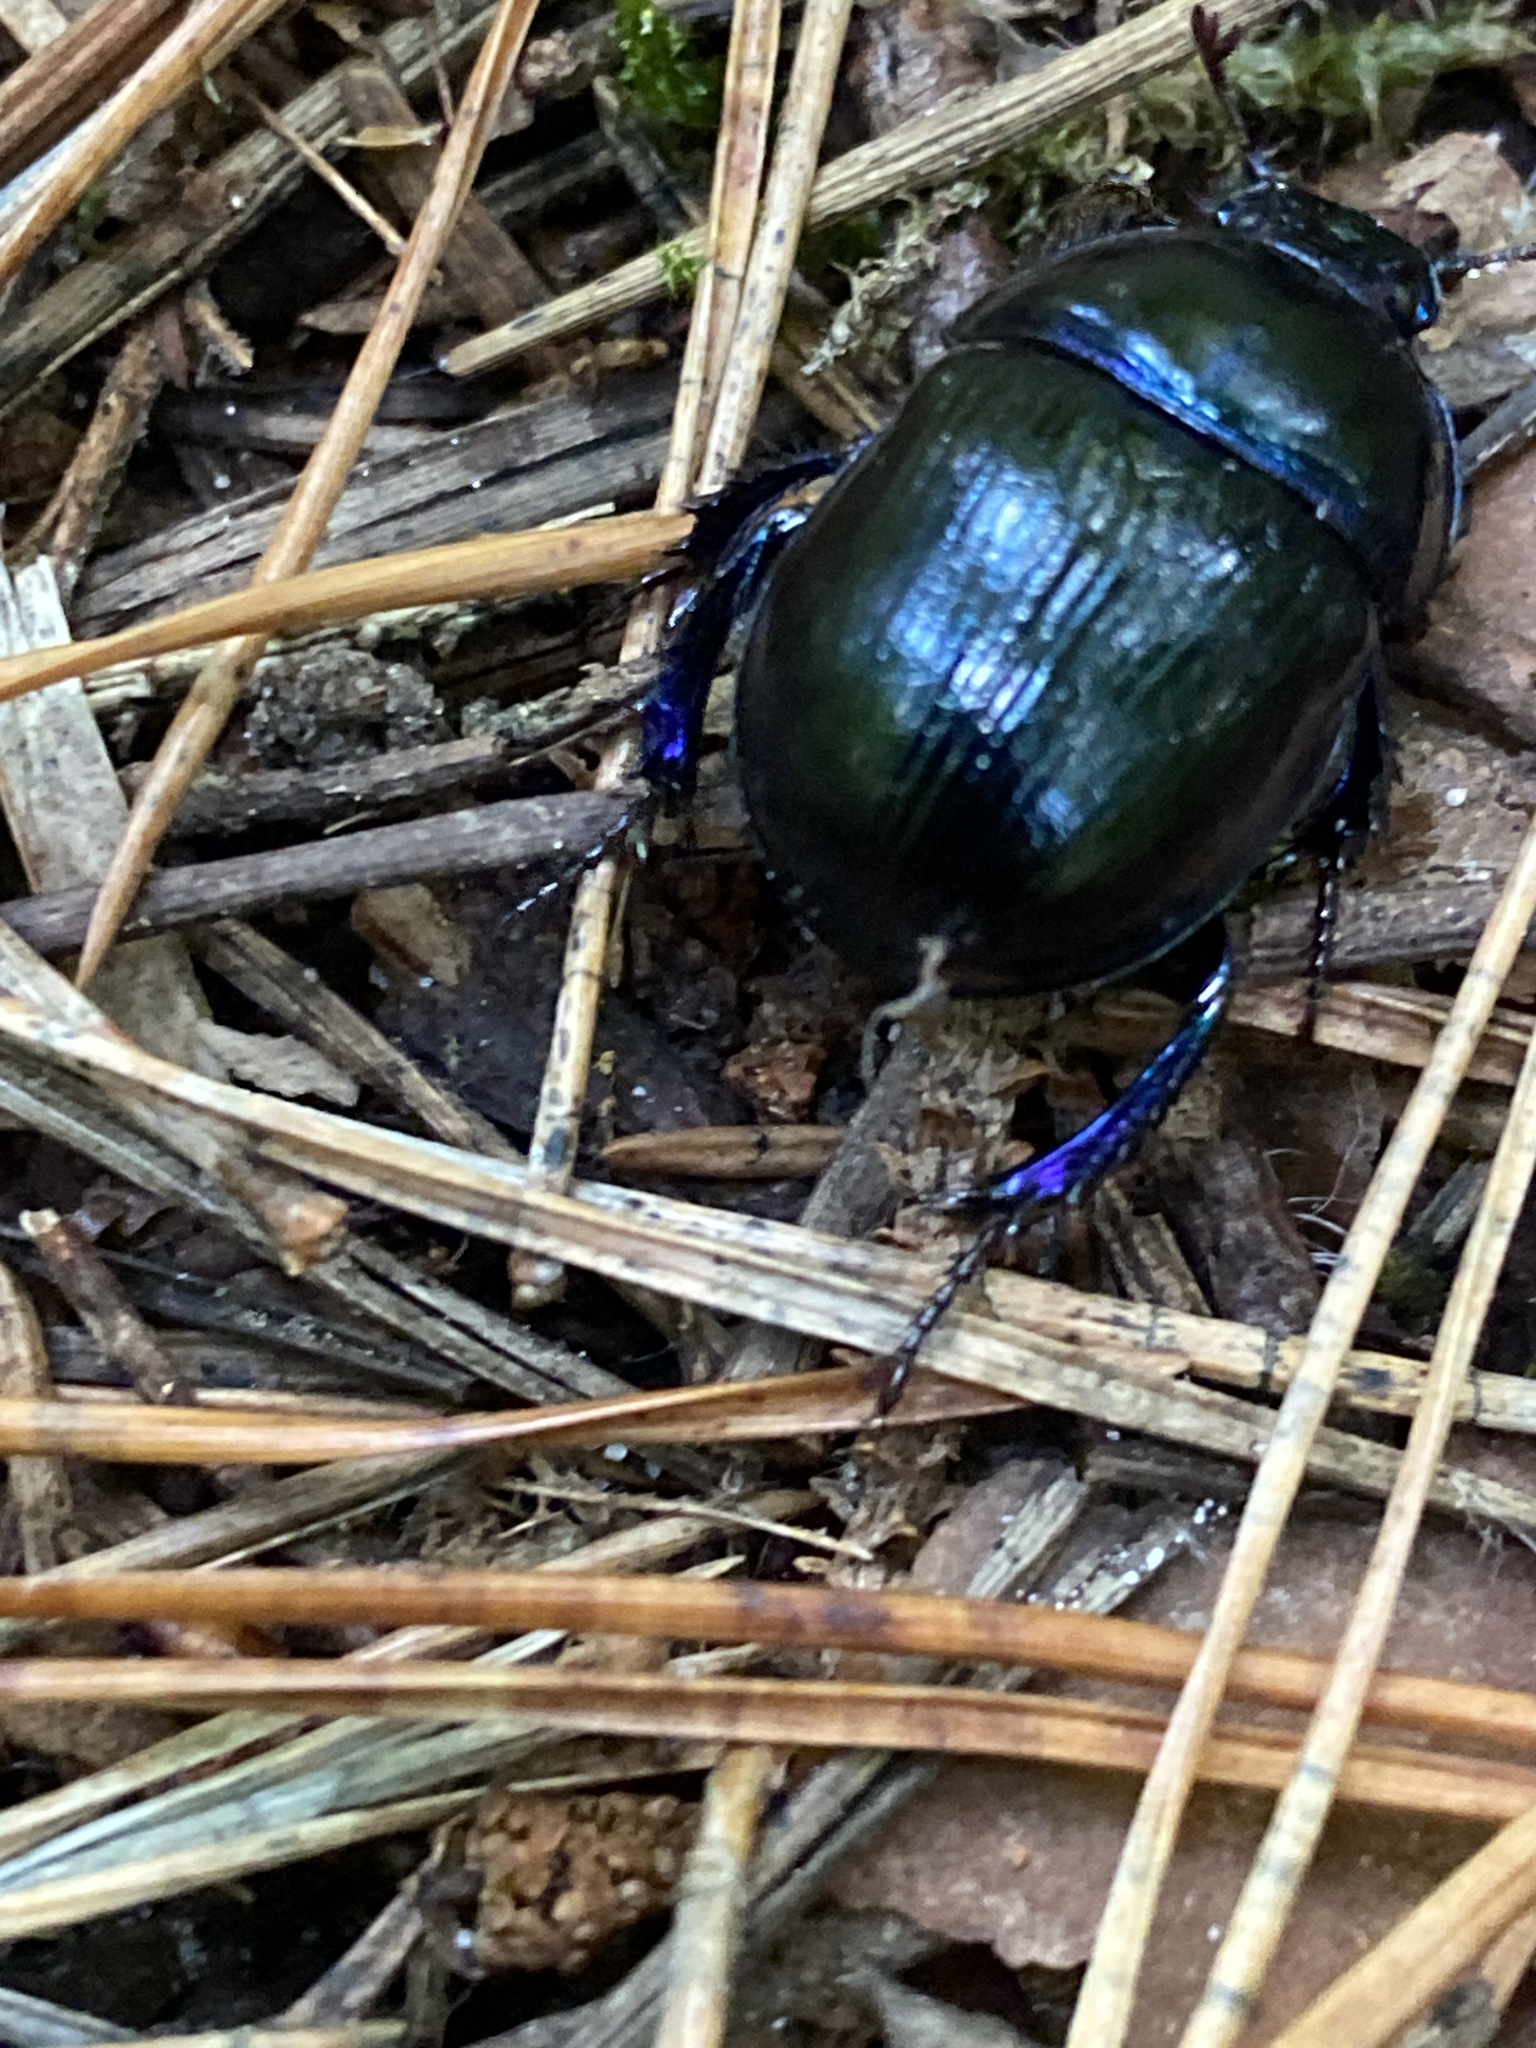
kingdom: Animalia
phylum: Arthropoda
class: Insecta
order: Coleoptera
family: Geotrupidae
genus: Anoplotrupes
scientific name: Anoplotrupes stercorosus
